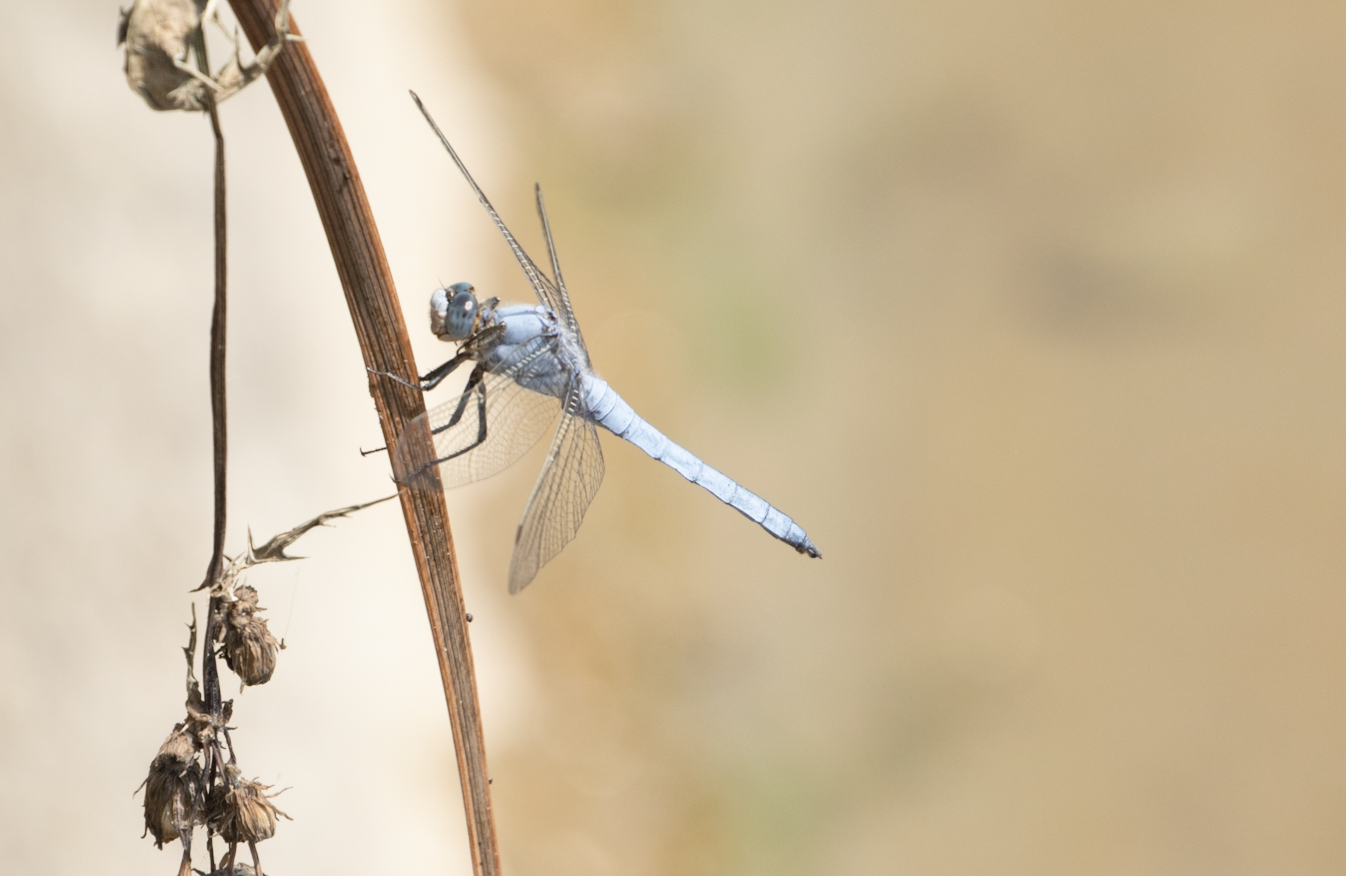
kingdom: Animalia
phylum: Arthropoda
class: Insecta
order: Odonata
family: Libellulidae
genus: Orthetrum
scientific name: Orthetrum brunneum
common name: Southern skimmer
